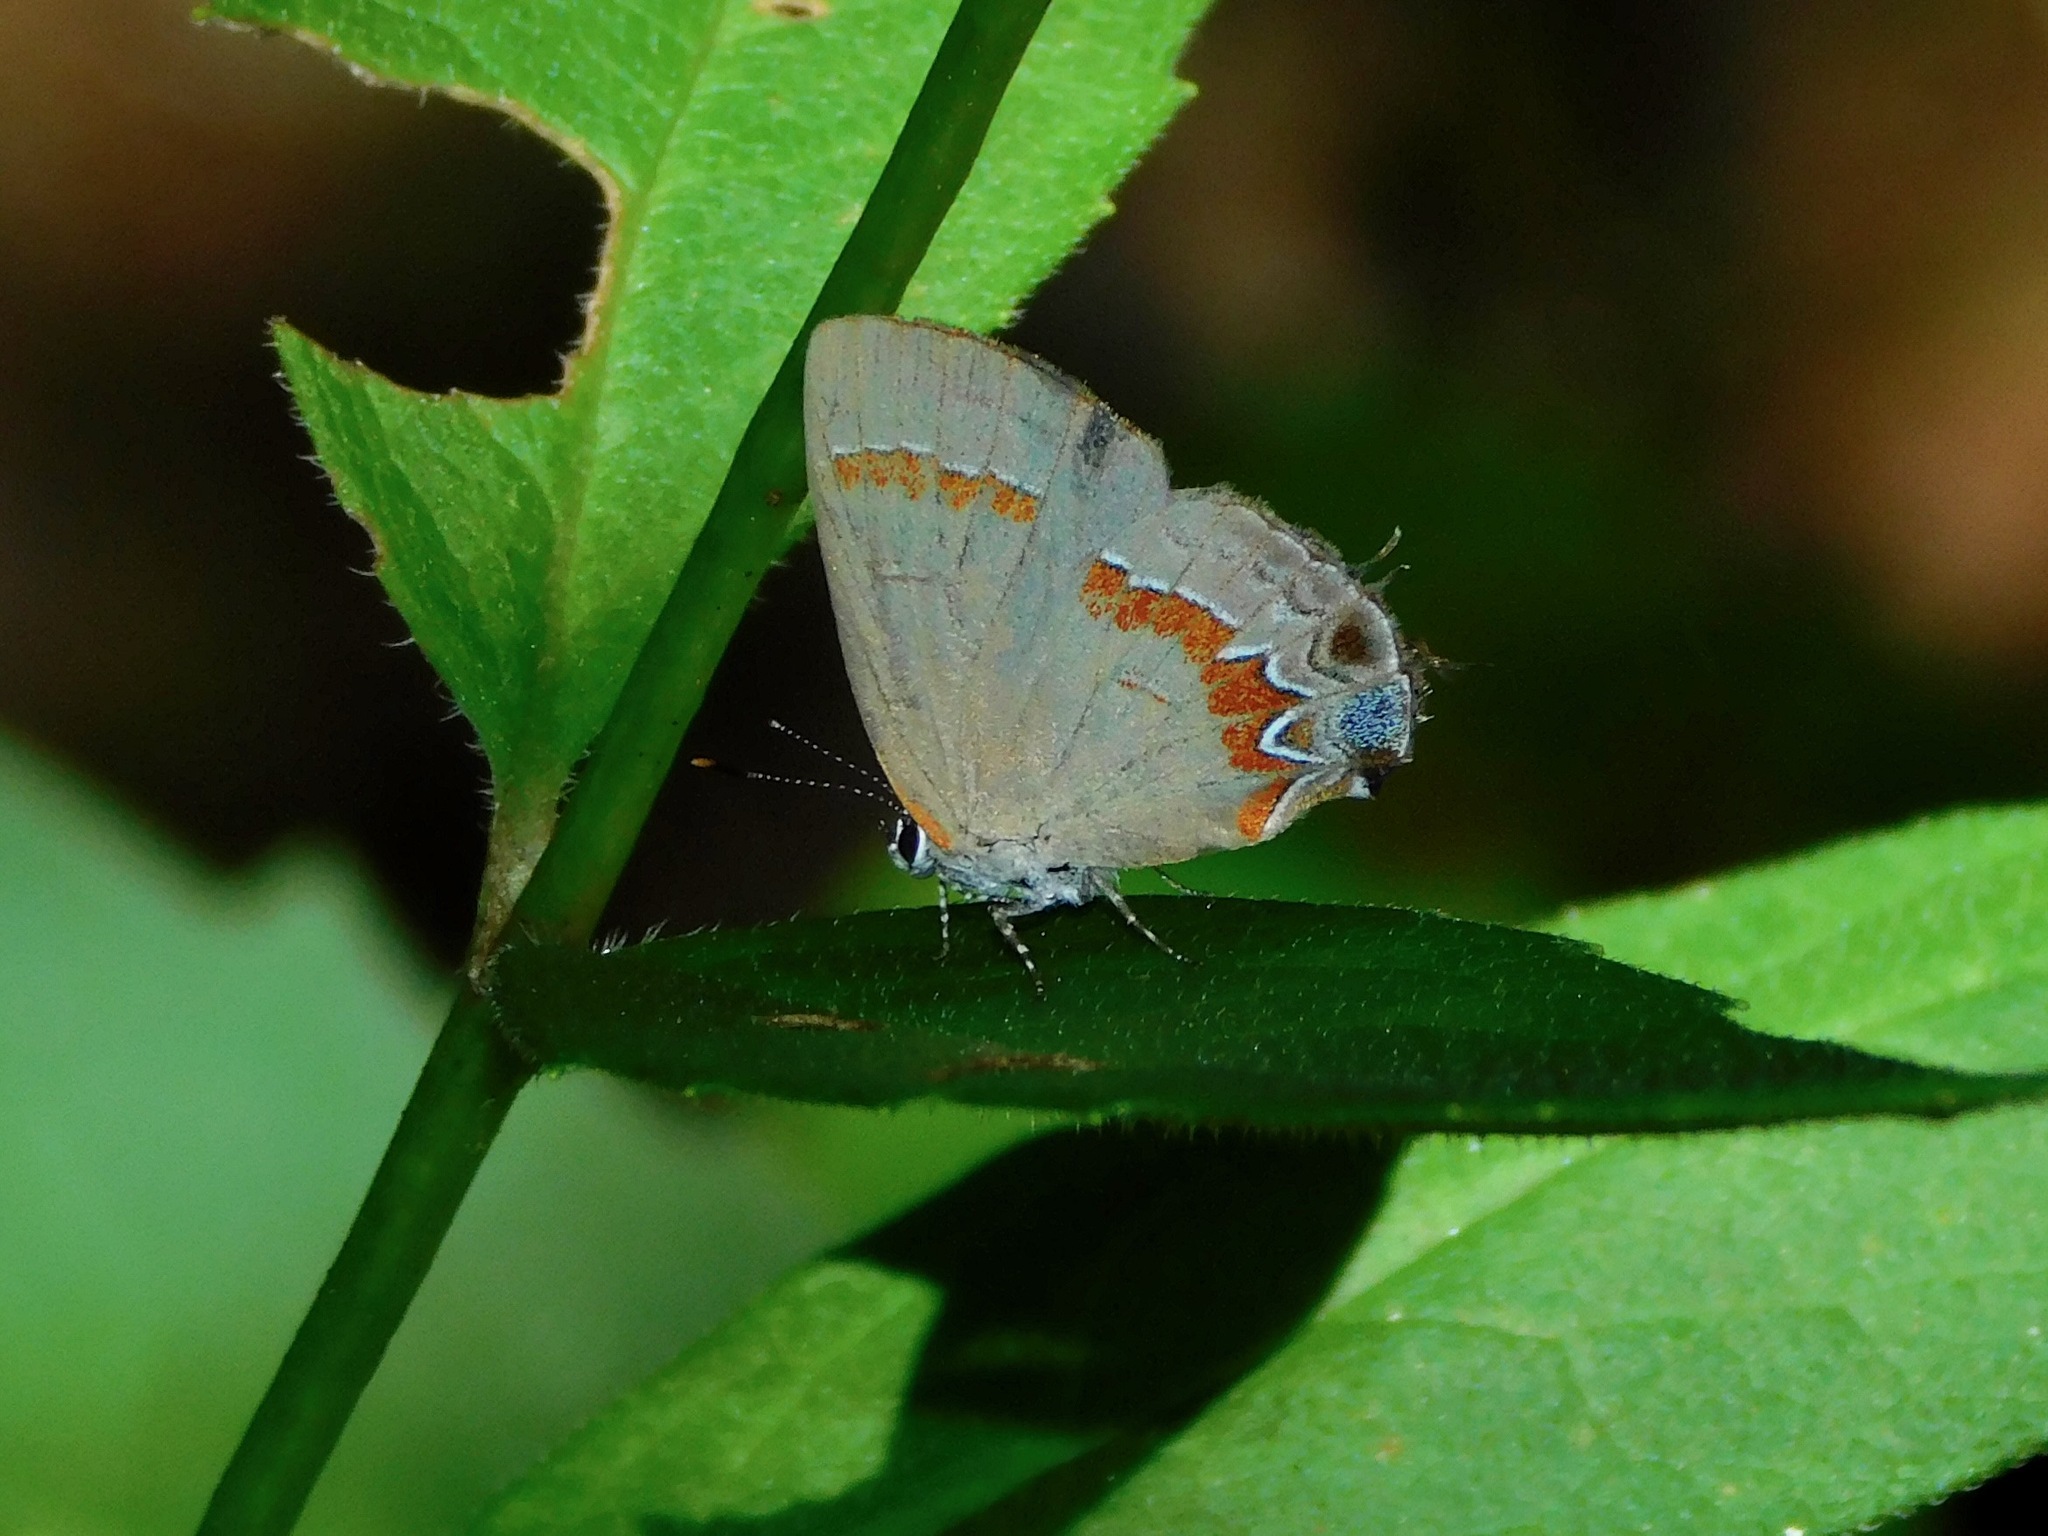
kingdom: Animalia
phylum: Arthropoda
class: Insecta
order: Lepidoptera
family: Lycaenidae
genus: Calycopis
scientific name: Calycopis cecrops
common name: Red-banded hairstreak
